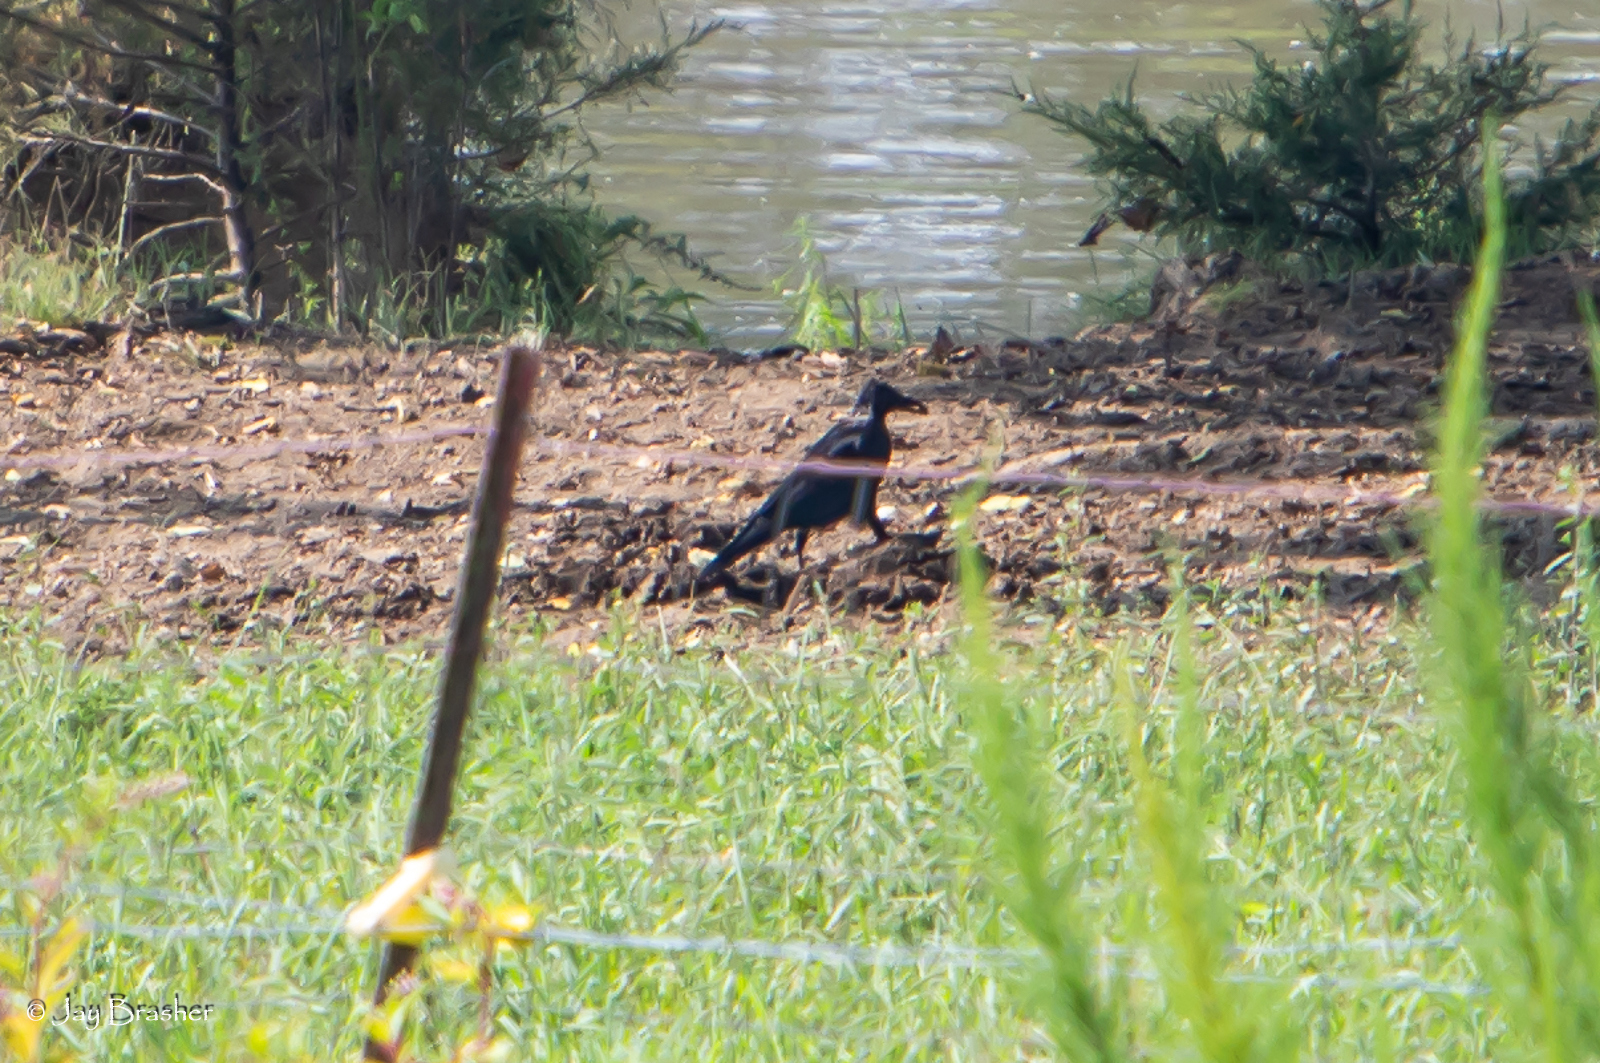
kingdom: Animalia
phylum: Chordata
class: Aves
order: Passeriformes
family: Corvidae
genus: Corvus
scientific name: Corvus brachyrhynchos
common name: American crow
